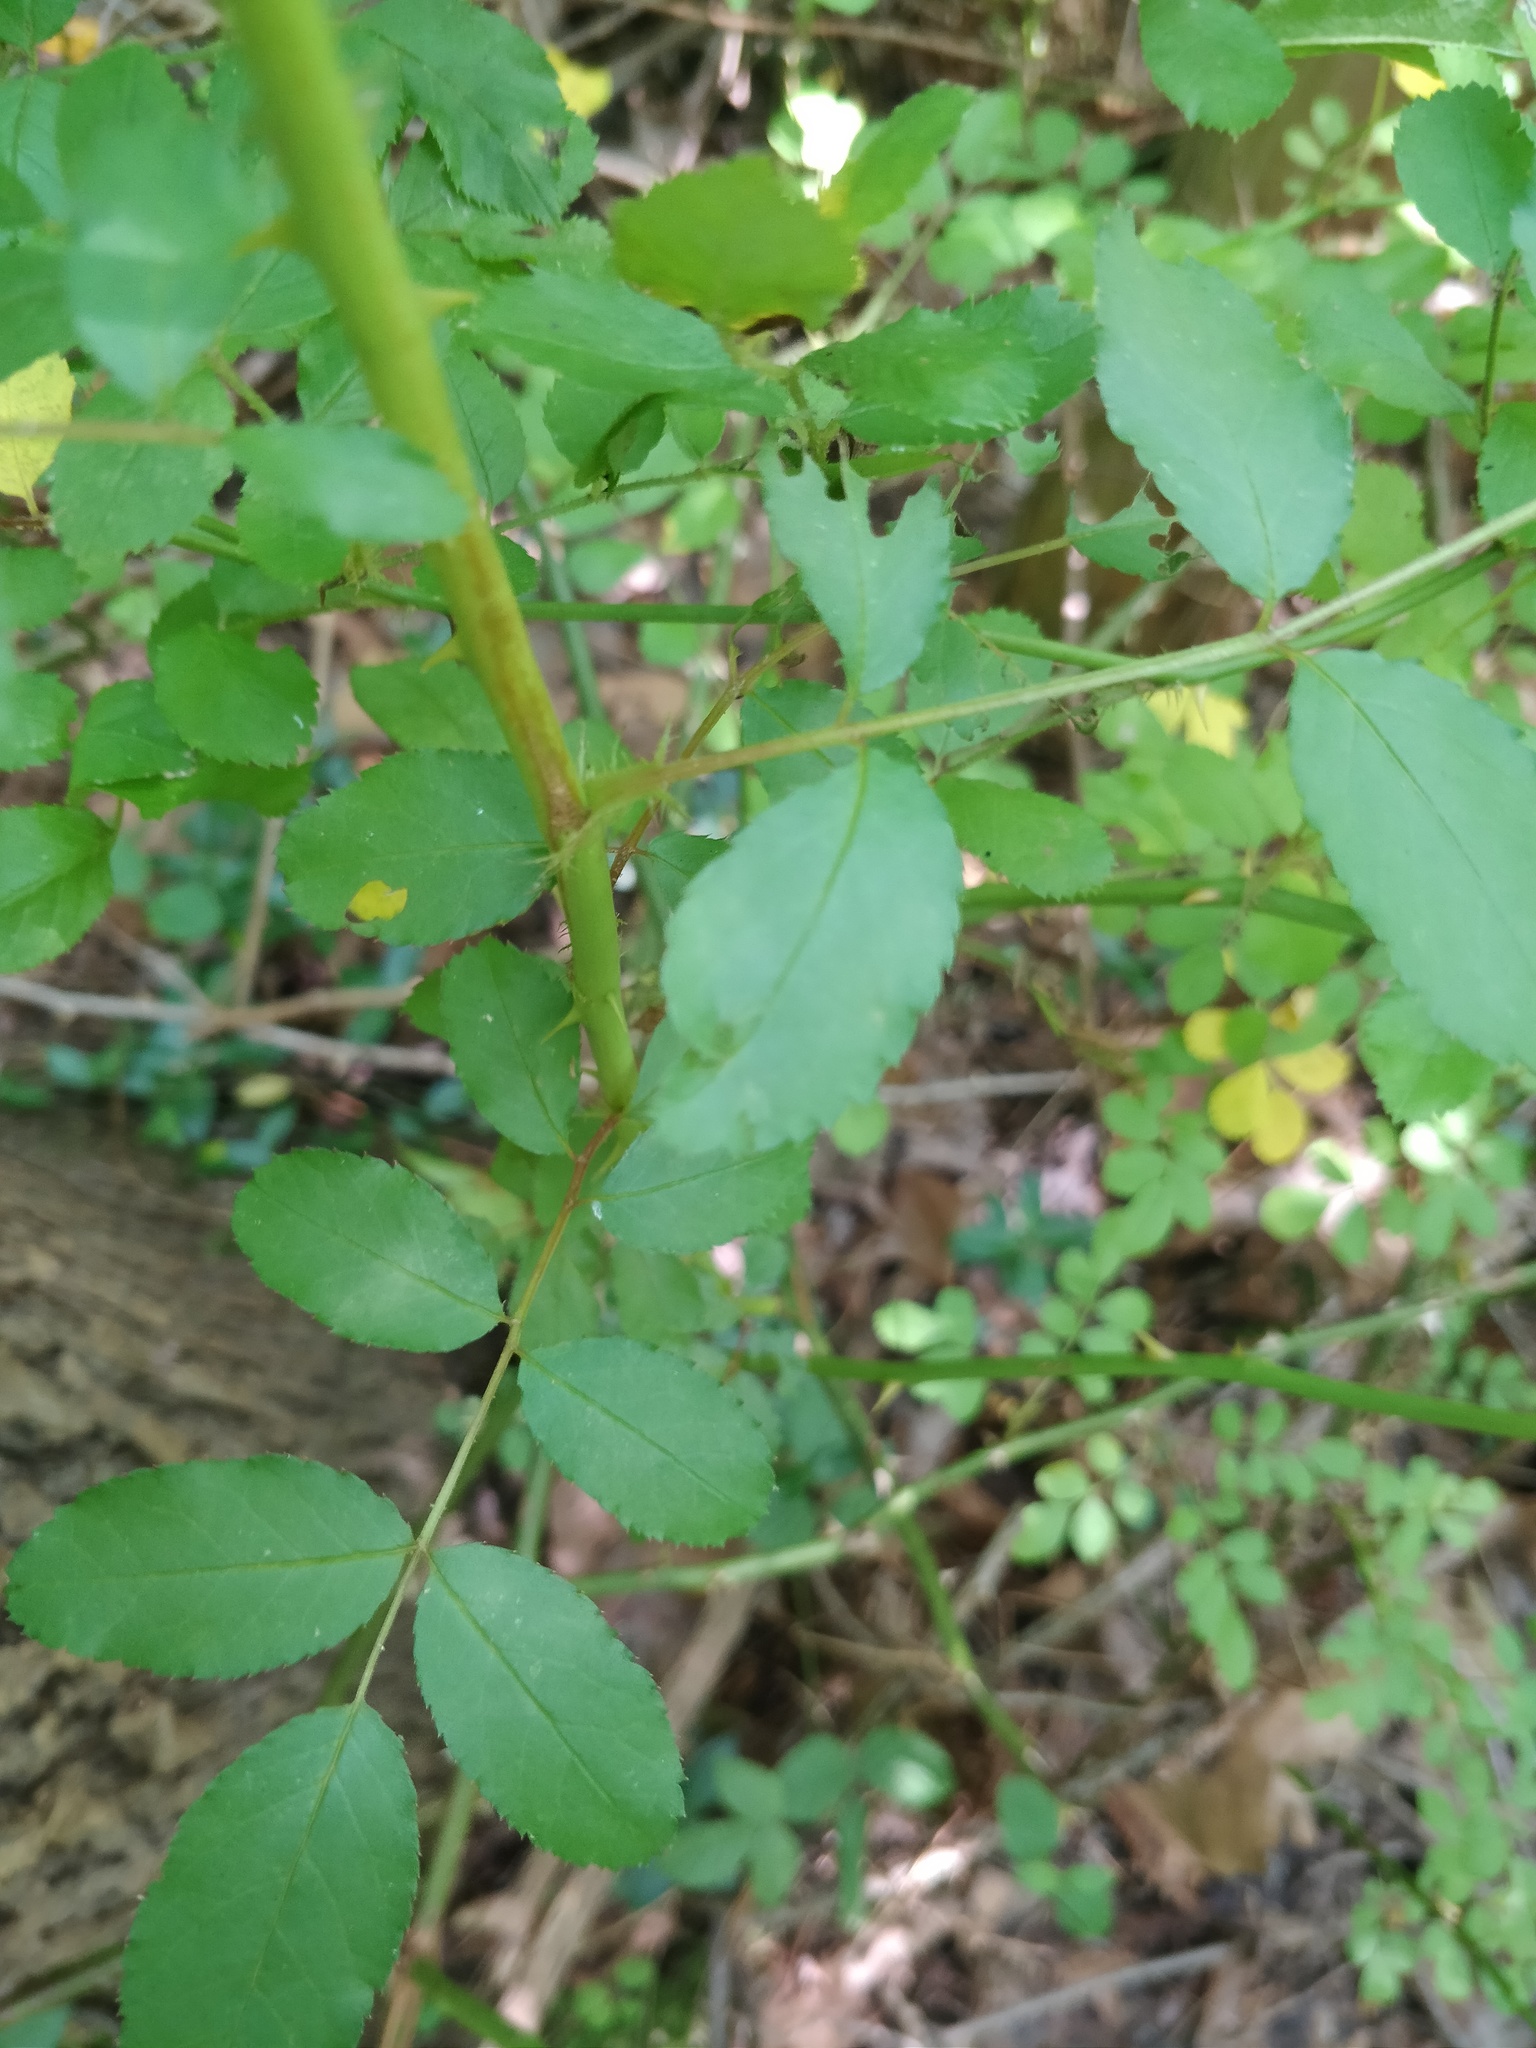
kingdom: Plantae
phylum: Tracheophyta
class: Magnoliopsida
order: Rosales
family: Rosaceae
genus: Rosa
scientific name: Rosa multiflora
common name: Multiflora rose
